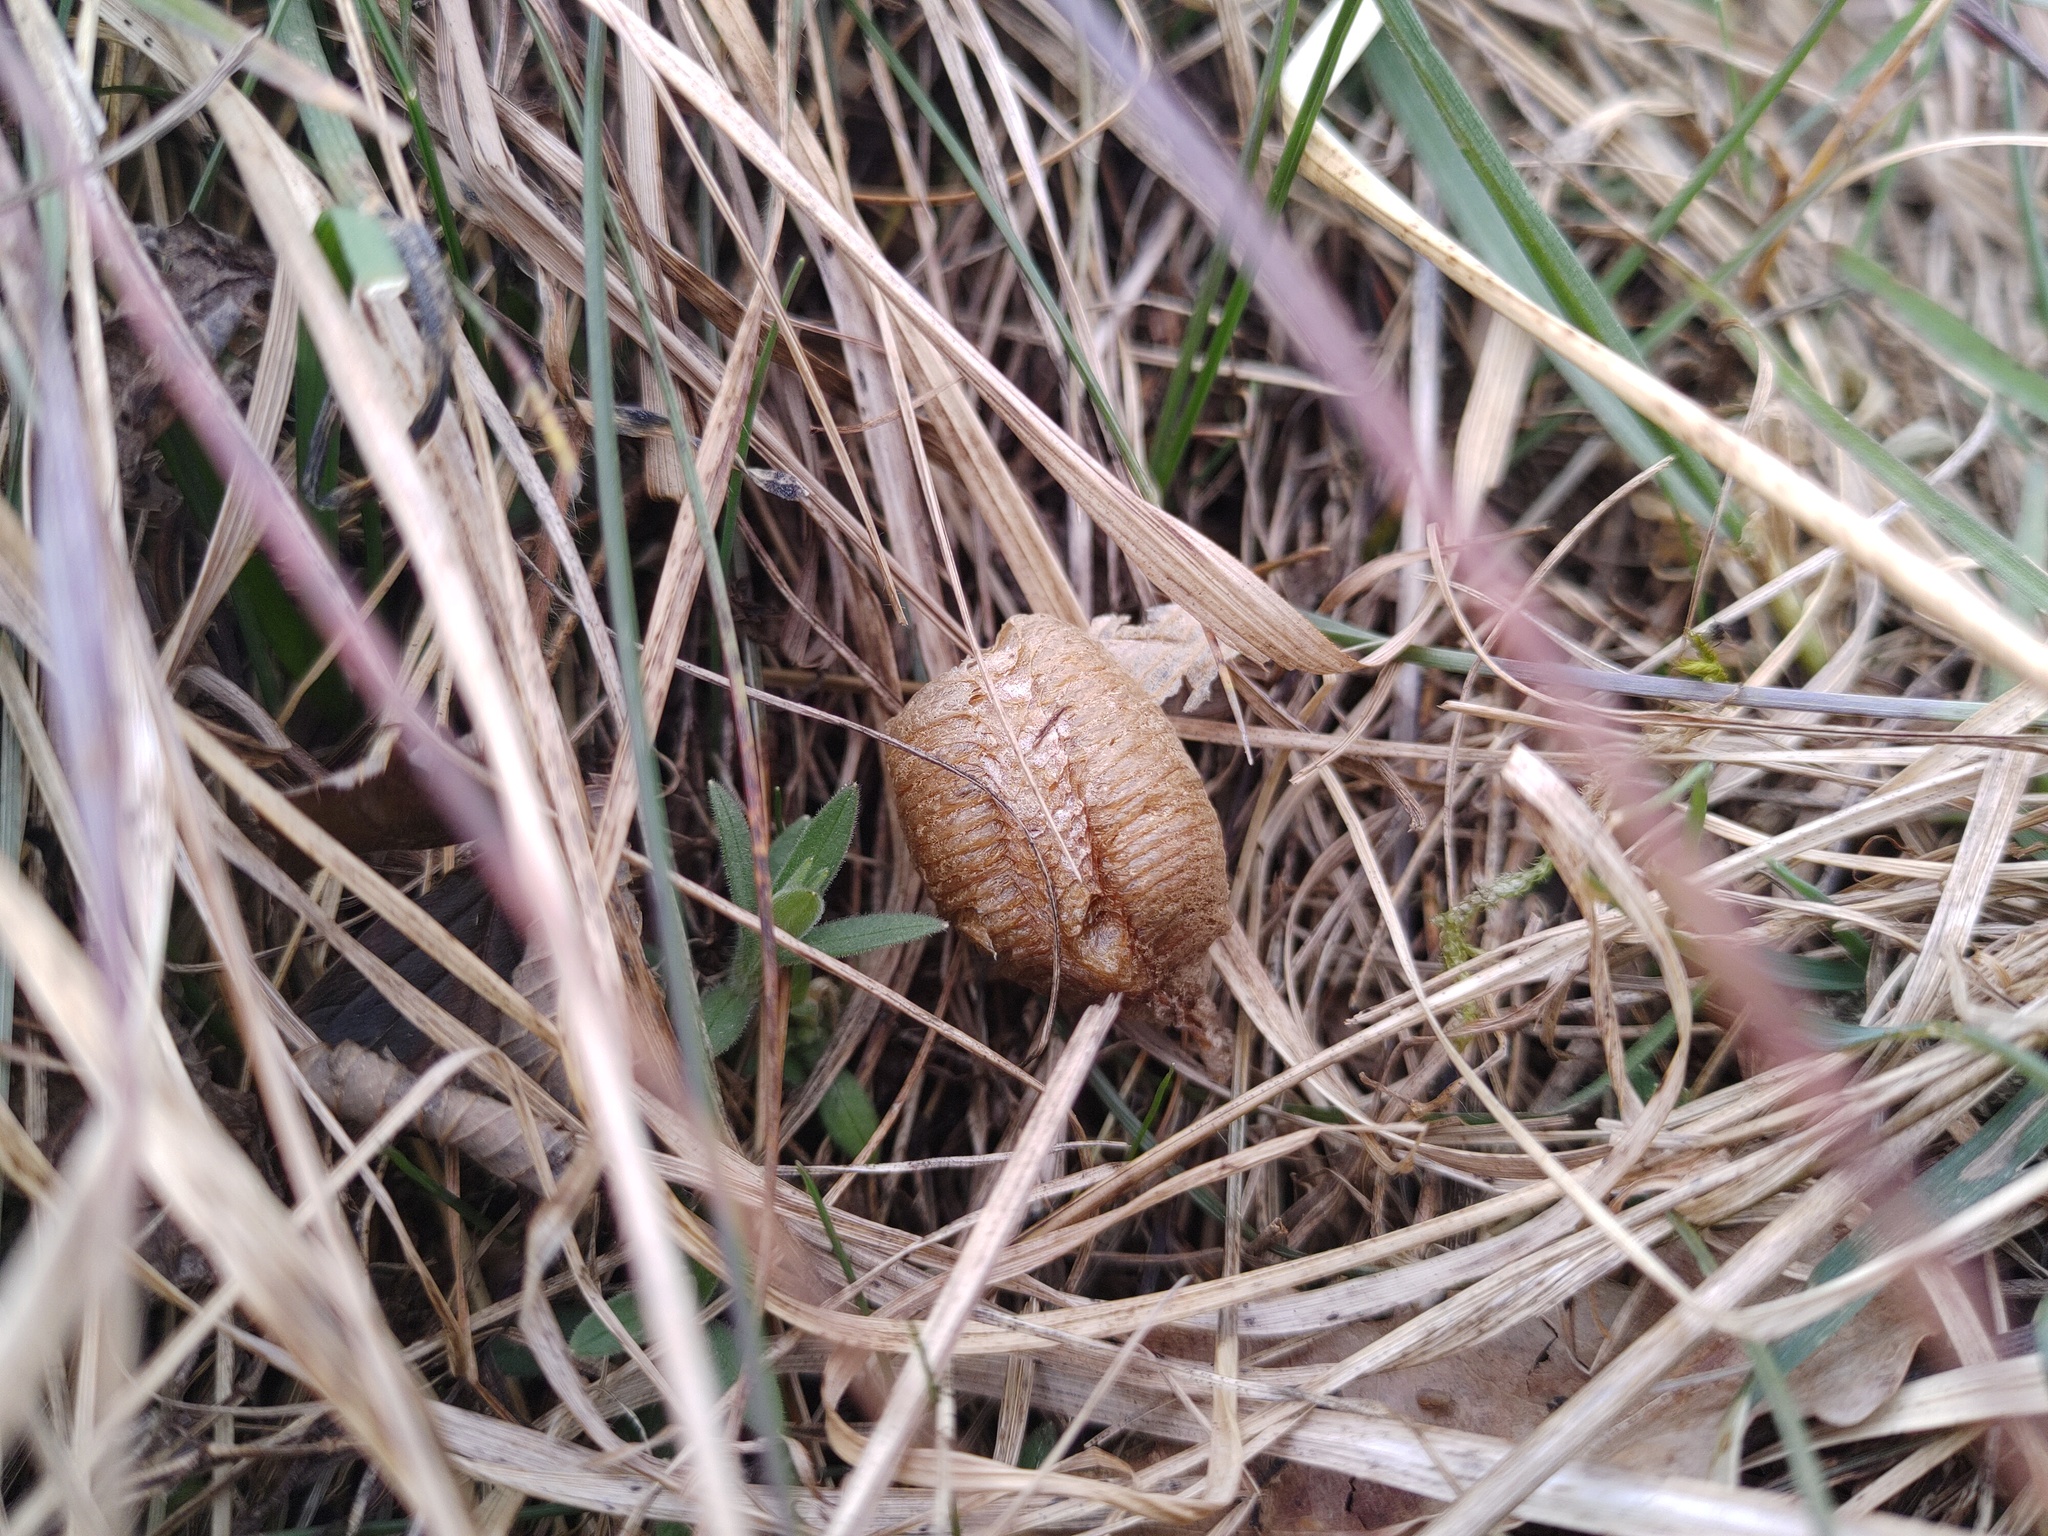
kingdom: Animalia
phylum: Arthropoda
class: Insecta
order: Mantodea
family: Mantidae
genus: Mantis
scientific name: Mantis religiosa
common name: Praying mantis
